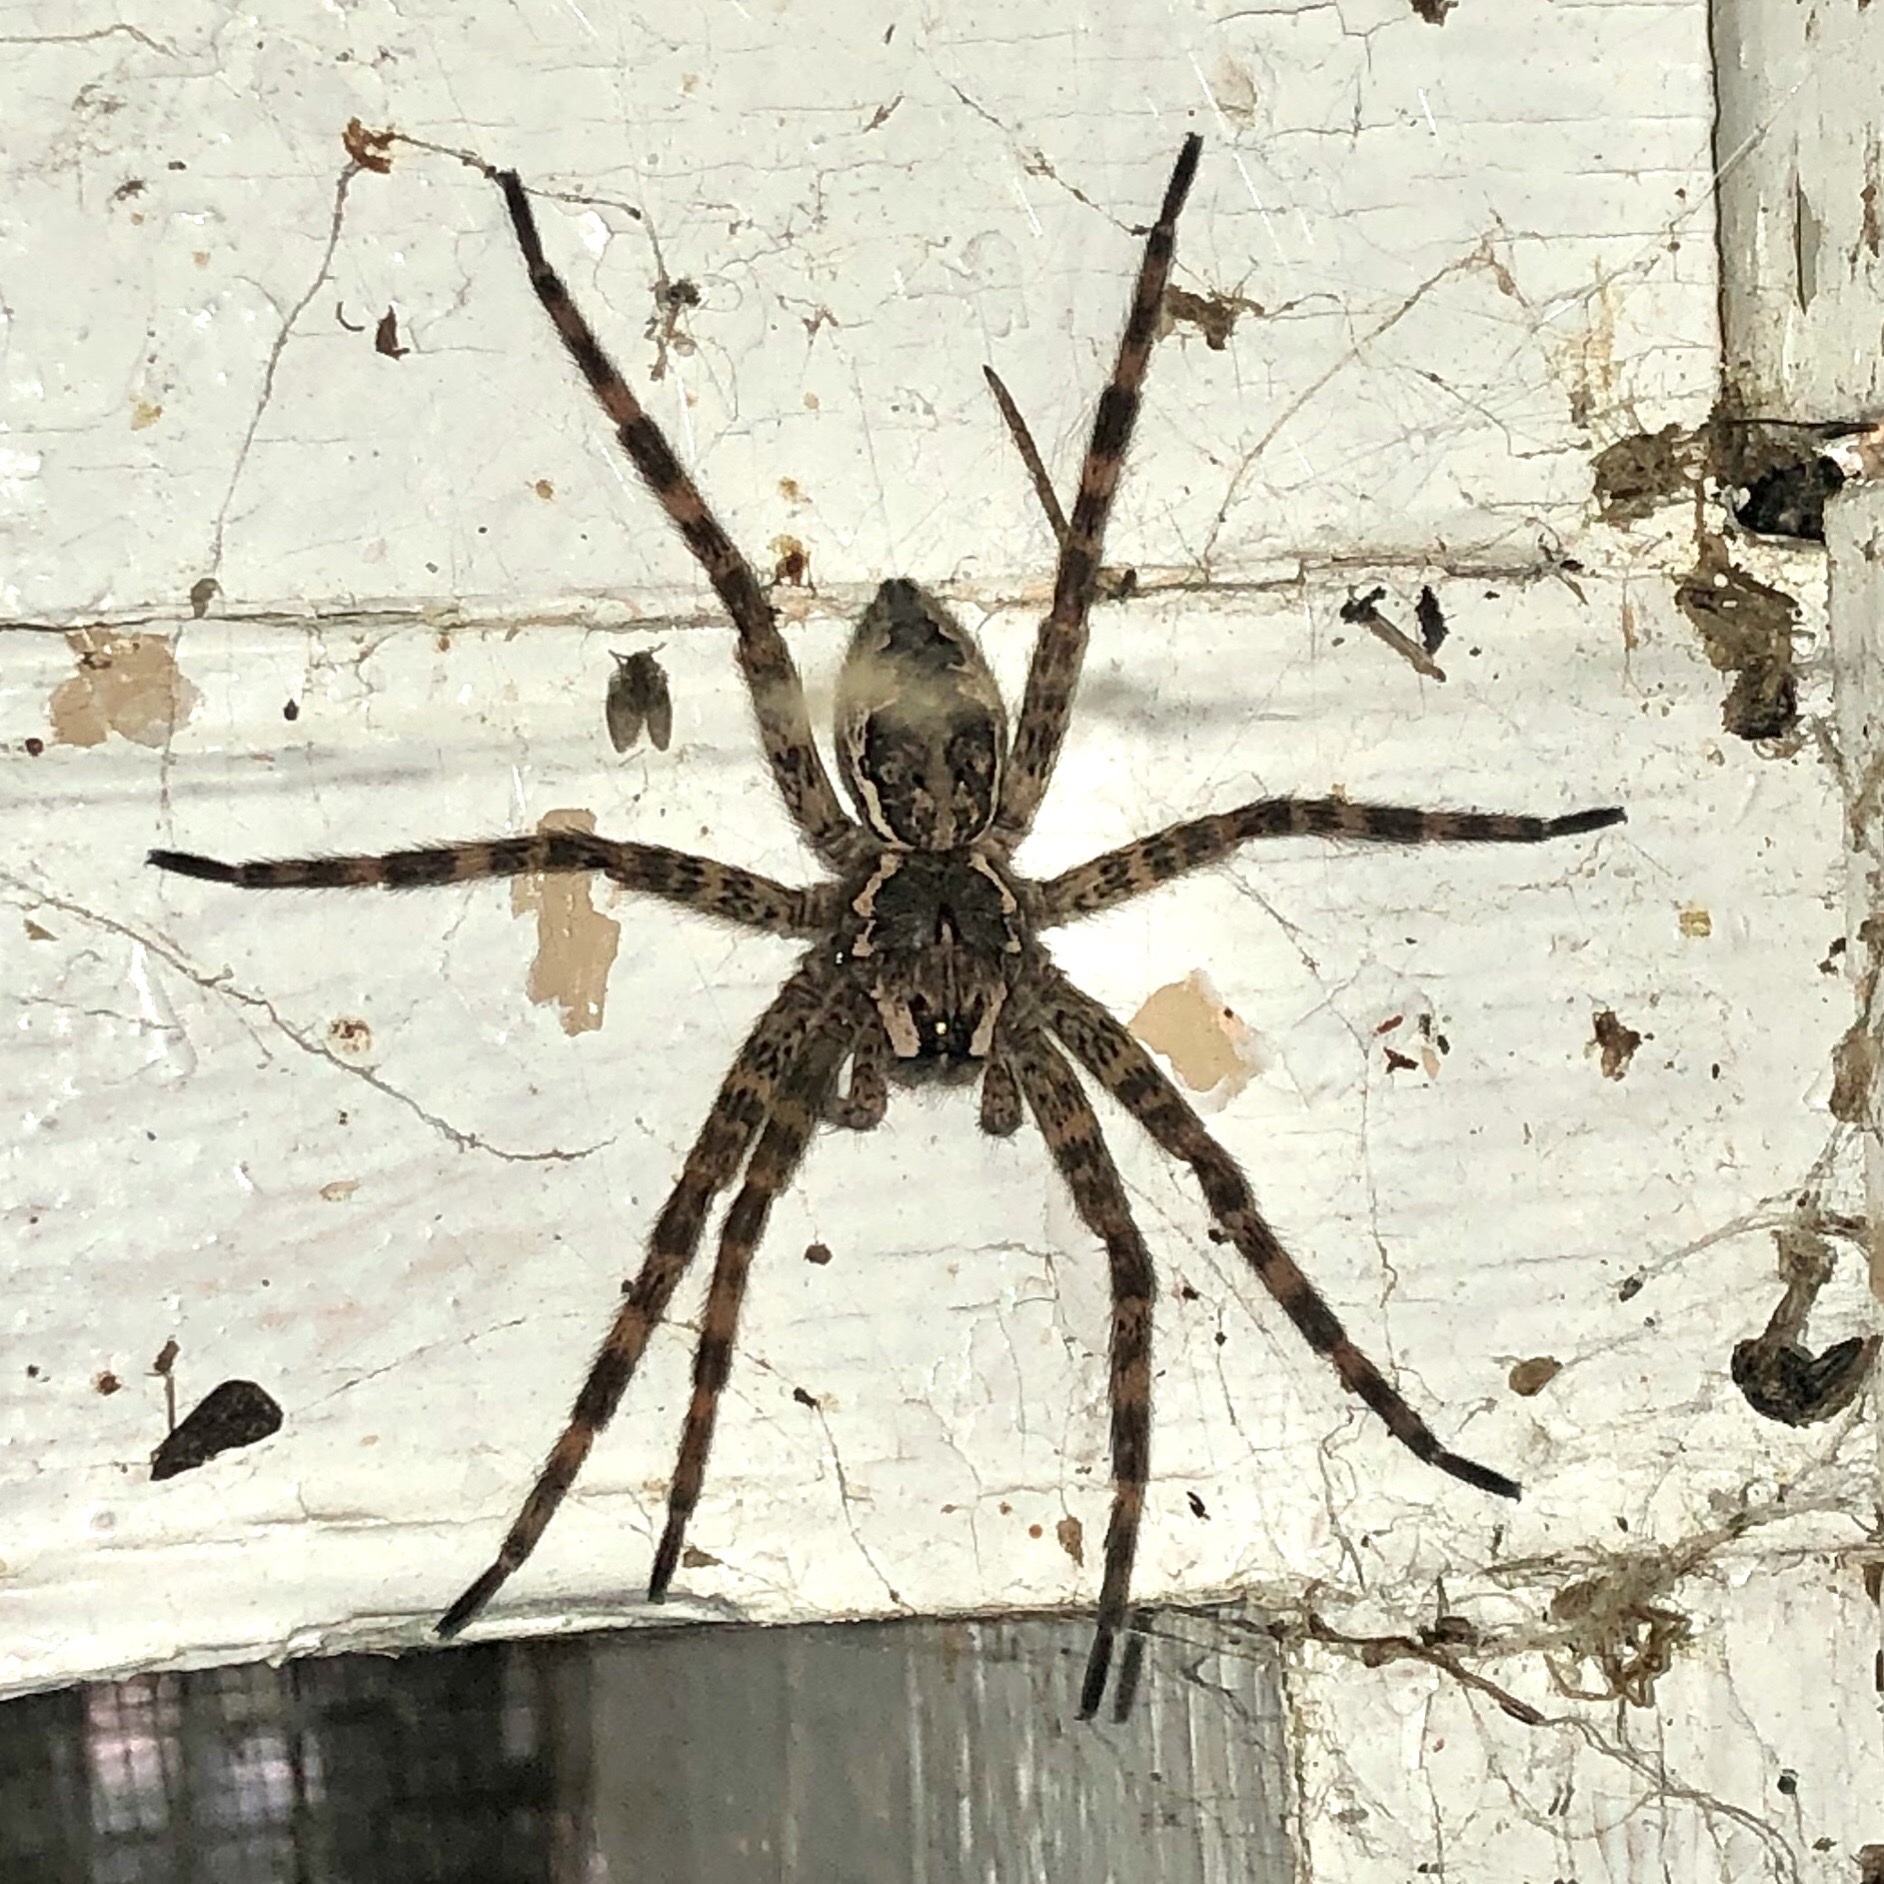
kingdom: Animalia
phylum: Arthropoda
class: Arachnida
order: Araneae
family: Pisauridae
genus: Dolomedes
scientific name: Dolomedes tenebrosus
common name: Dark fishing spider
